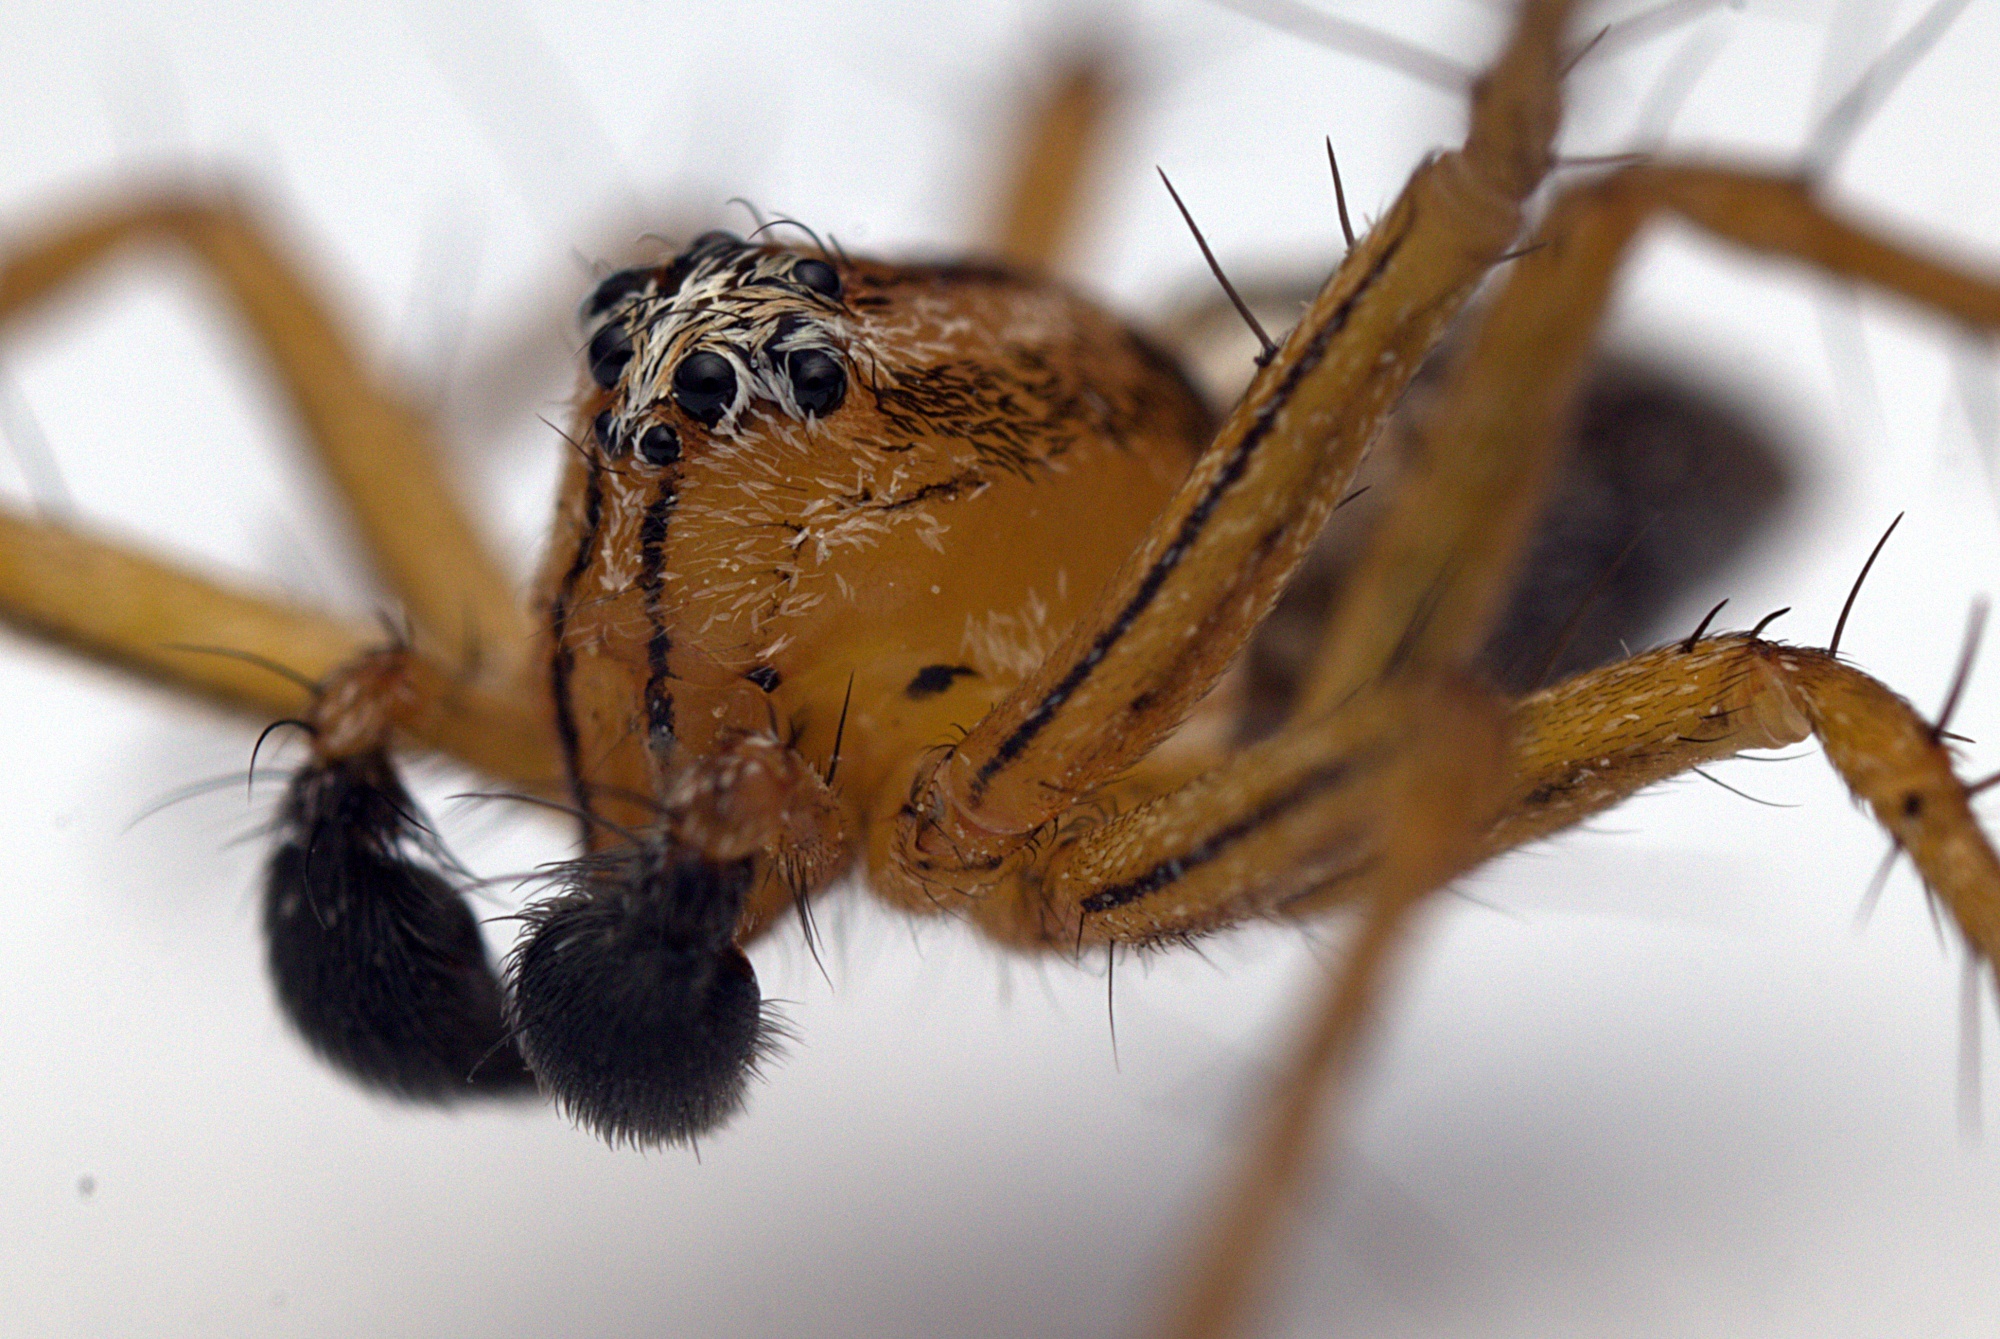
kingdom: Animalia
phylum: Arthropoda
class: Arachnida
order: Araneae
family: Oxyopidae
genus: Oxyopes
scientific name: Oxyopes gracilipes
